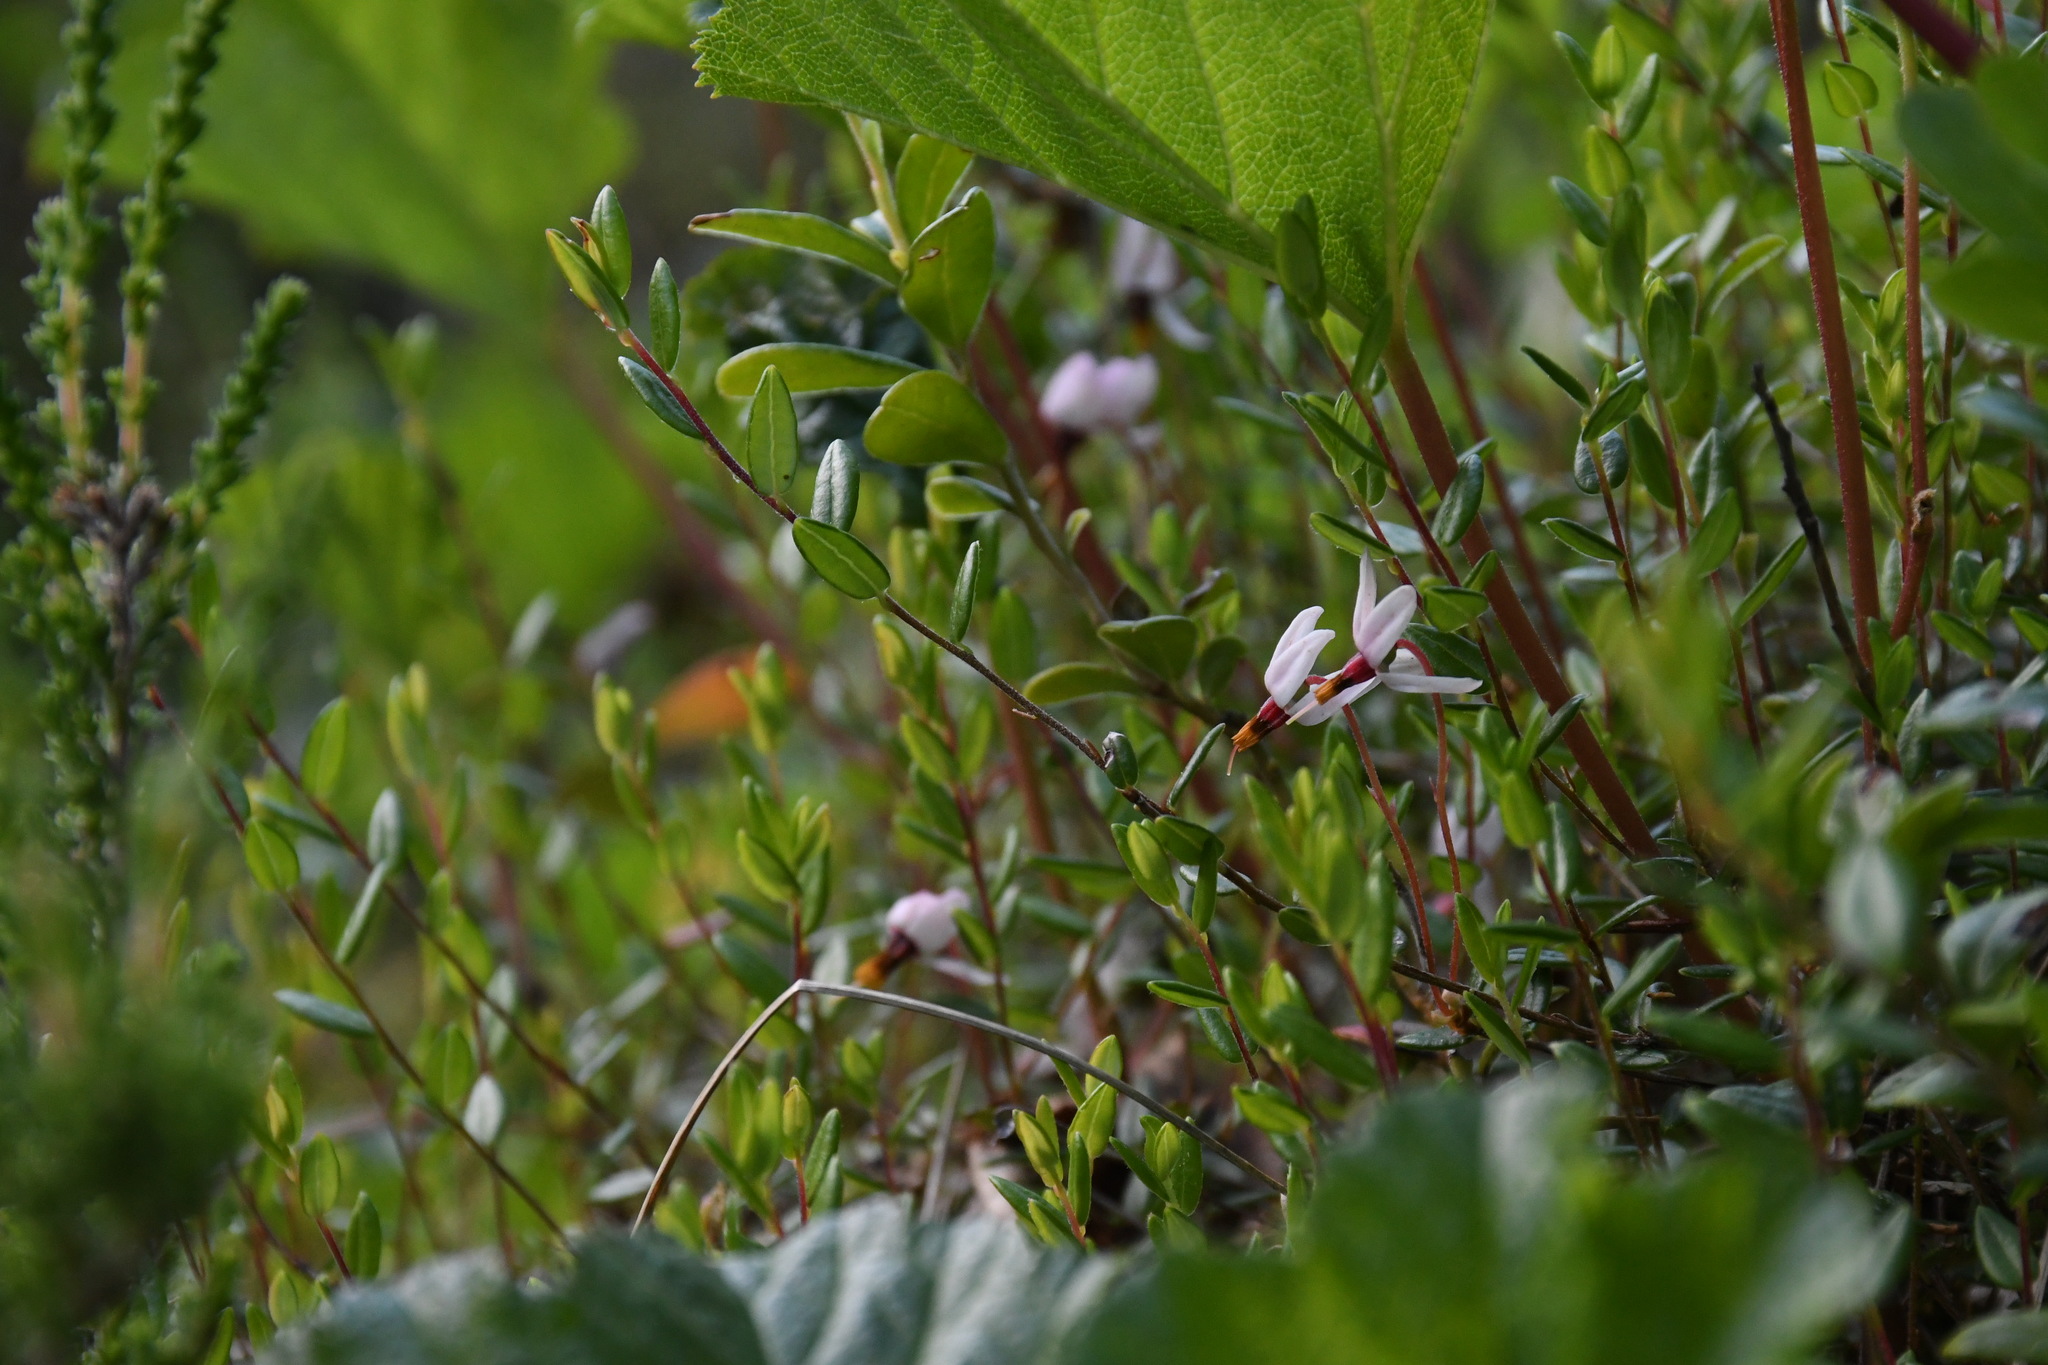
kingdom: Plantae
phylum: Tracheophyta
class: Magnoliopsida
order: Ericales
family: Ericaceae
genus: Vaccinium
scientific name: Vaccinium oxycoccos
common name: Cranberry
